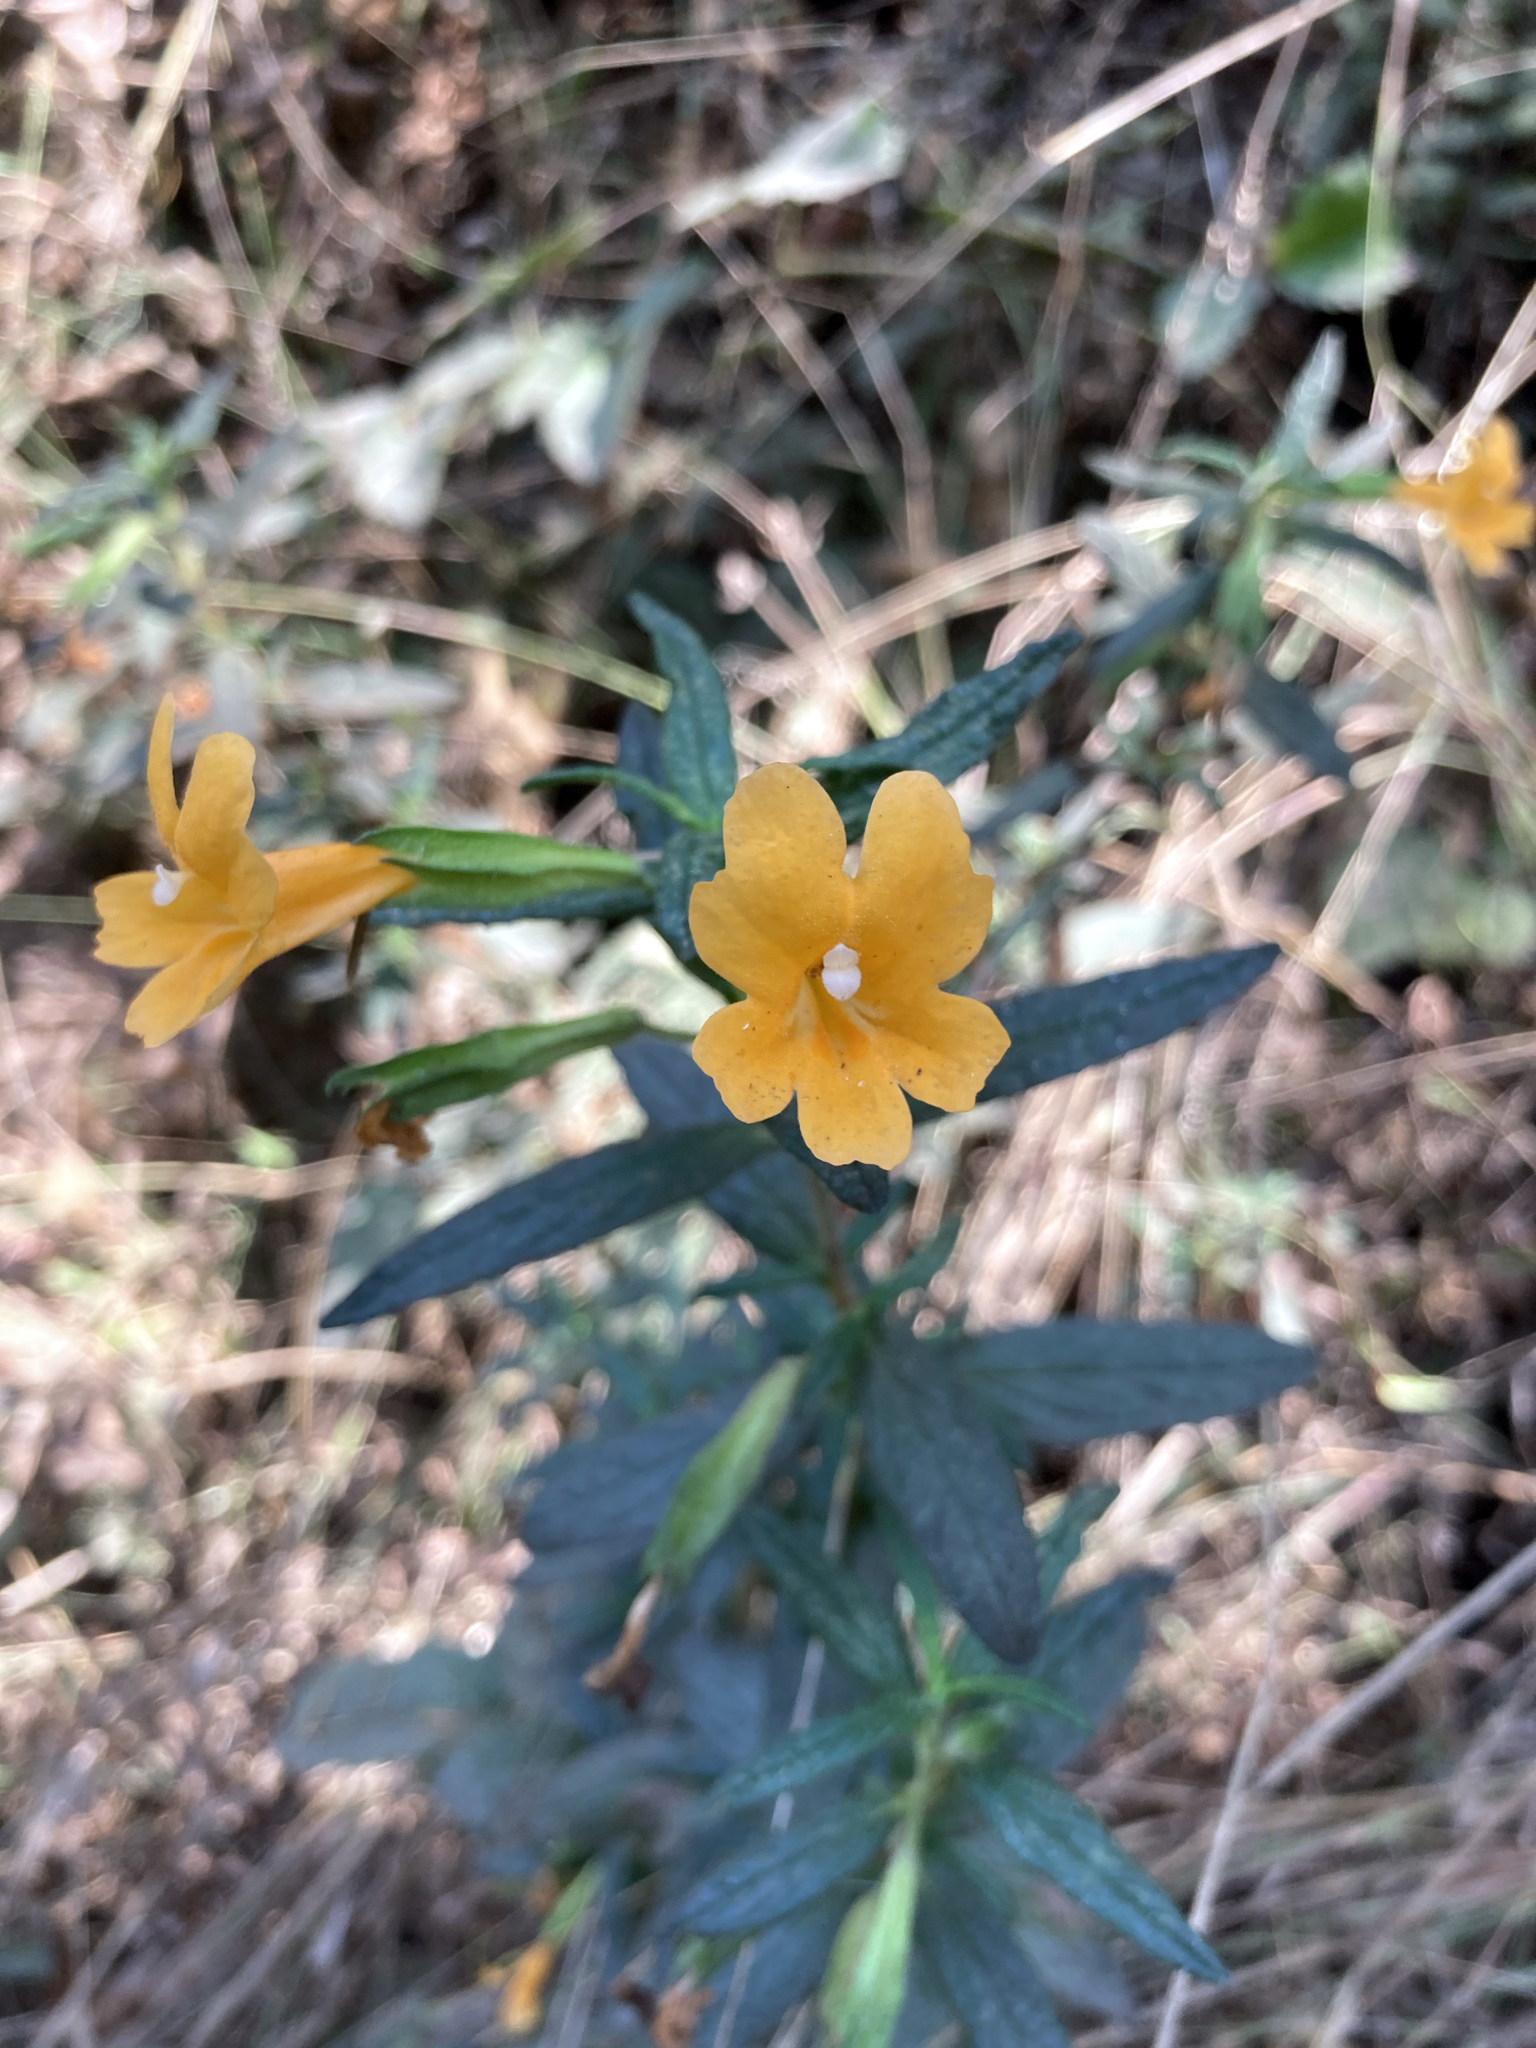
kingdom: Plantae
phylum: Tracheophyta
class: Magnoliopsida
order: Lamiales
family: Phrymaceae
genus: Diplacus
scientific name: Diplacus aurantiacus
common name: Bush monkey-flower
